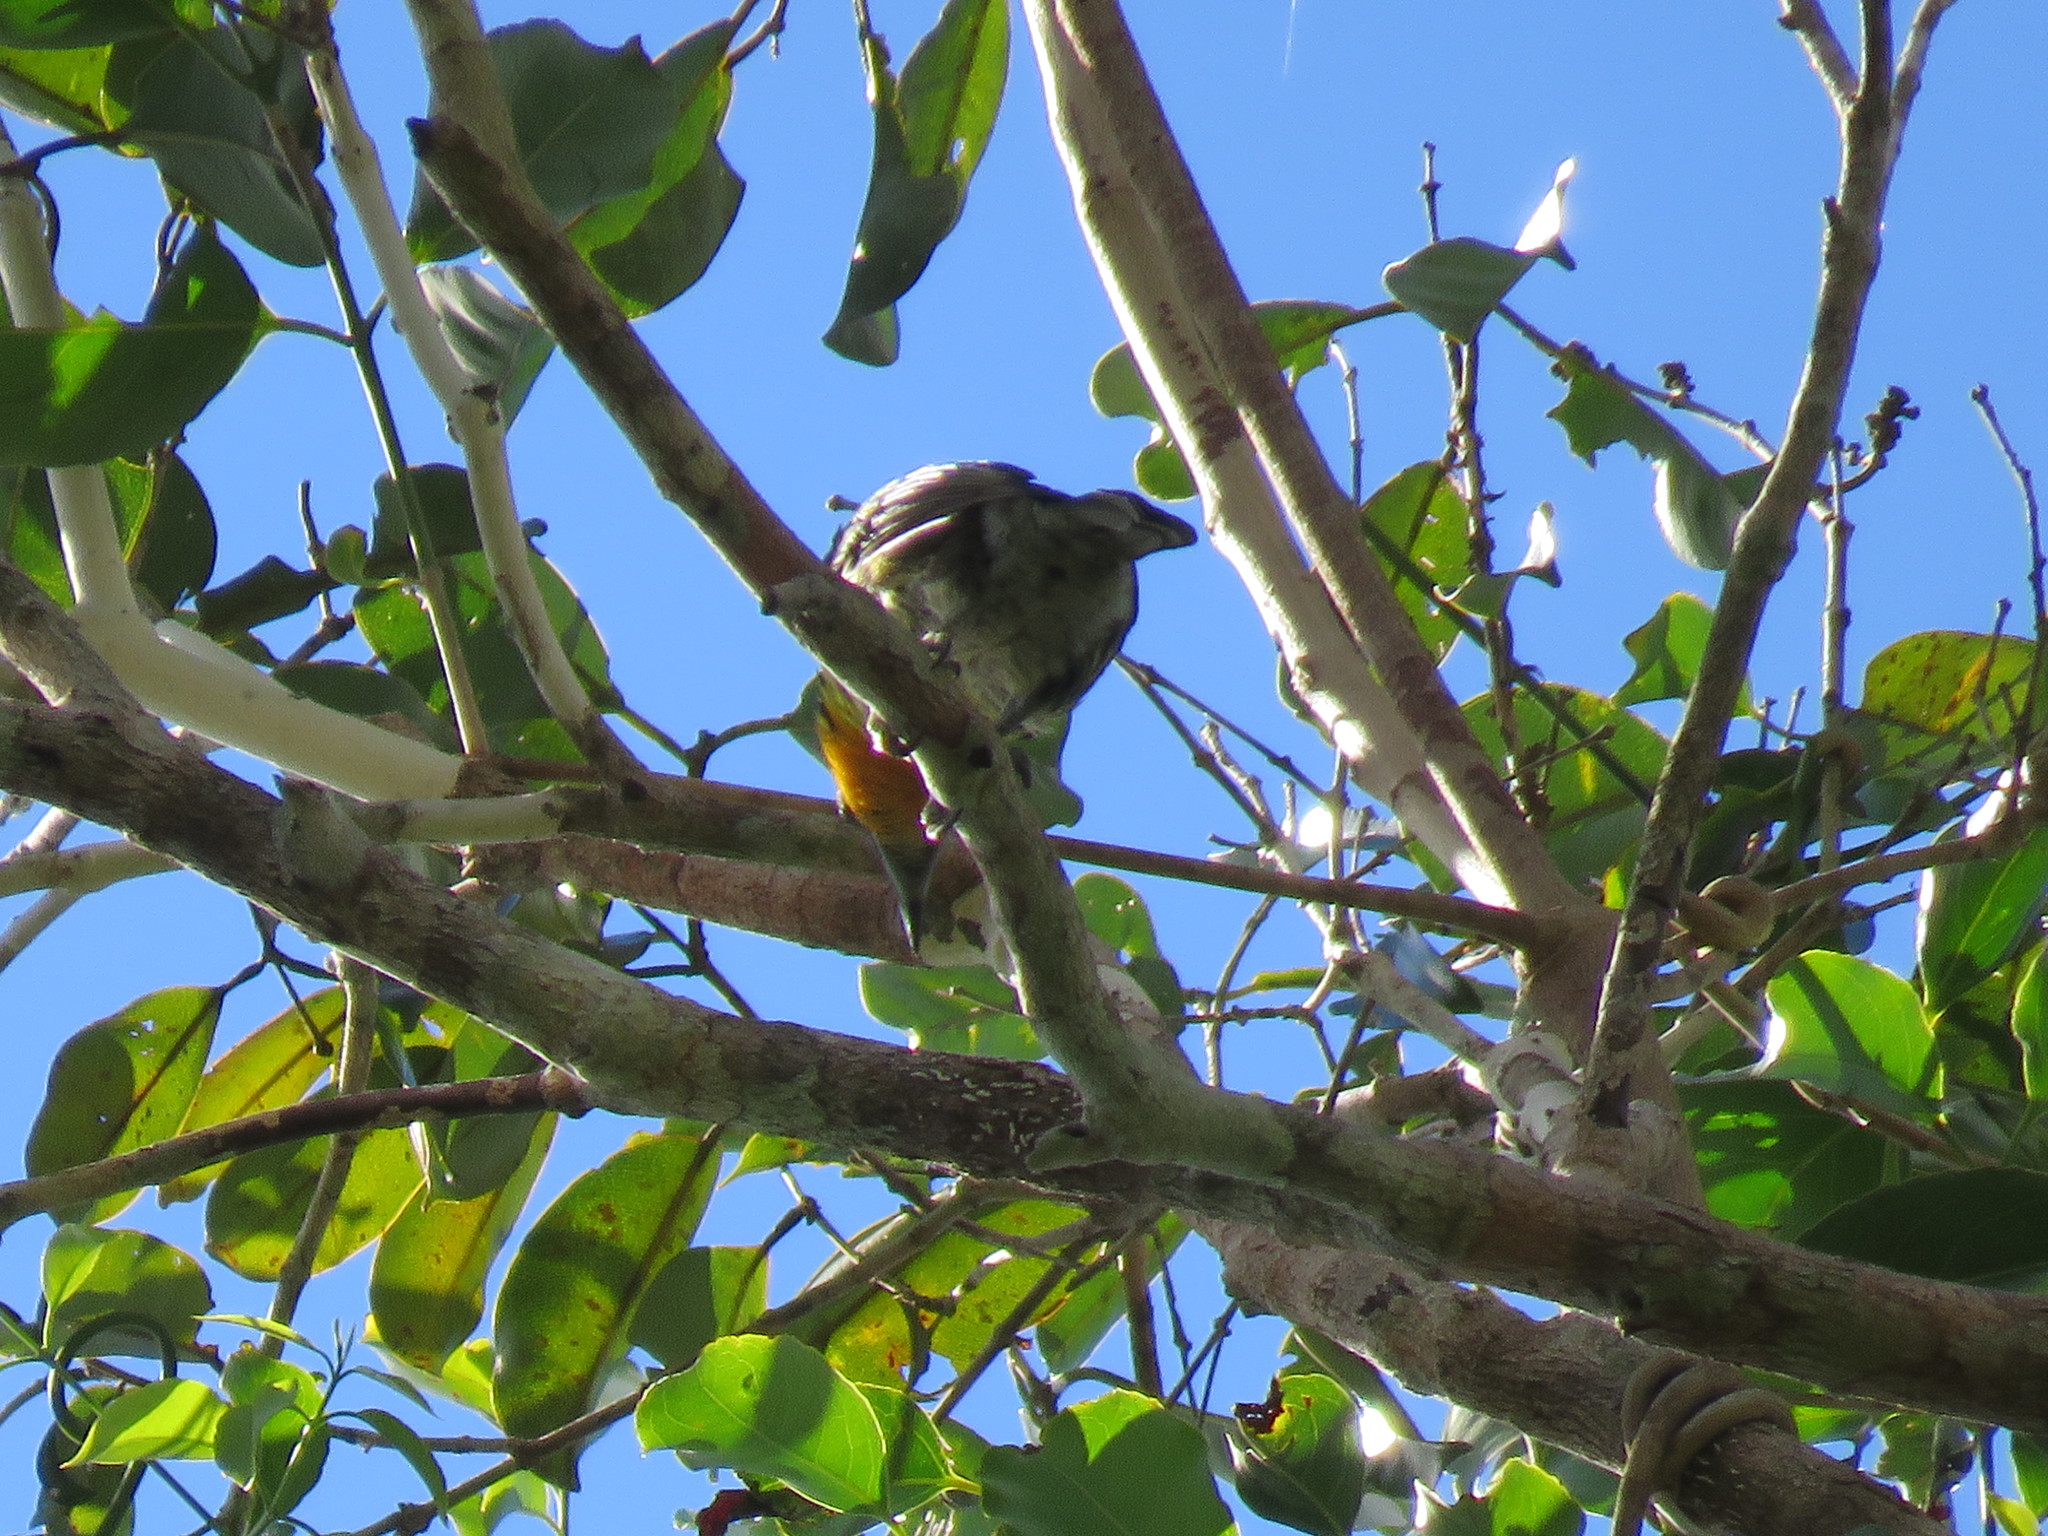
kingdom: Animalia
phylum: Chordata
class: Aves
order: Piciformes
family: Capitonidae
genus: Capito
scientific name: Capito auratus
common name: Gilded barbet
